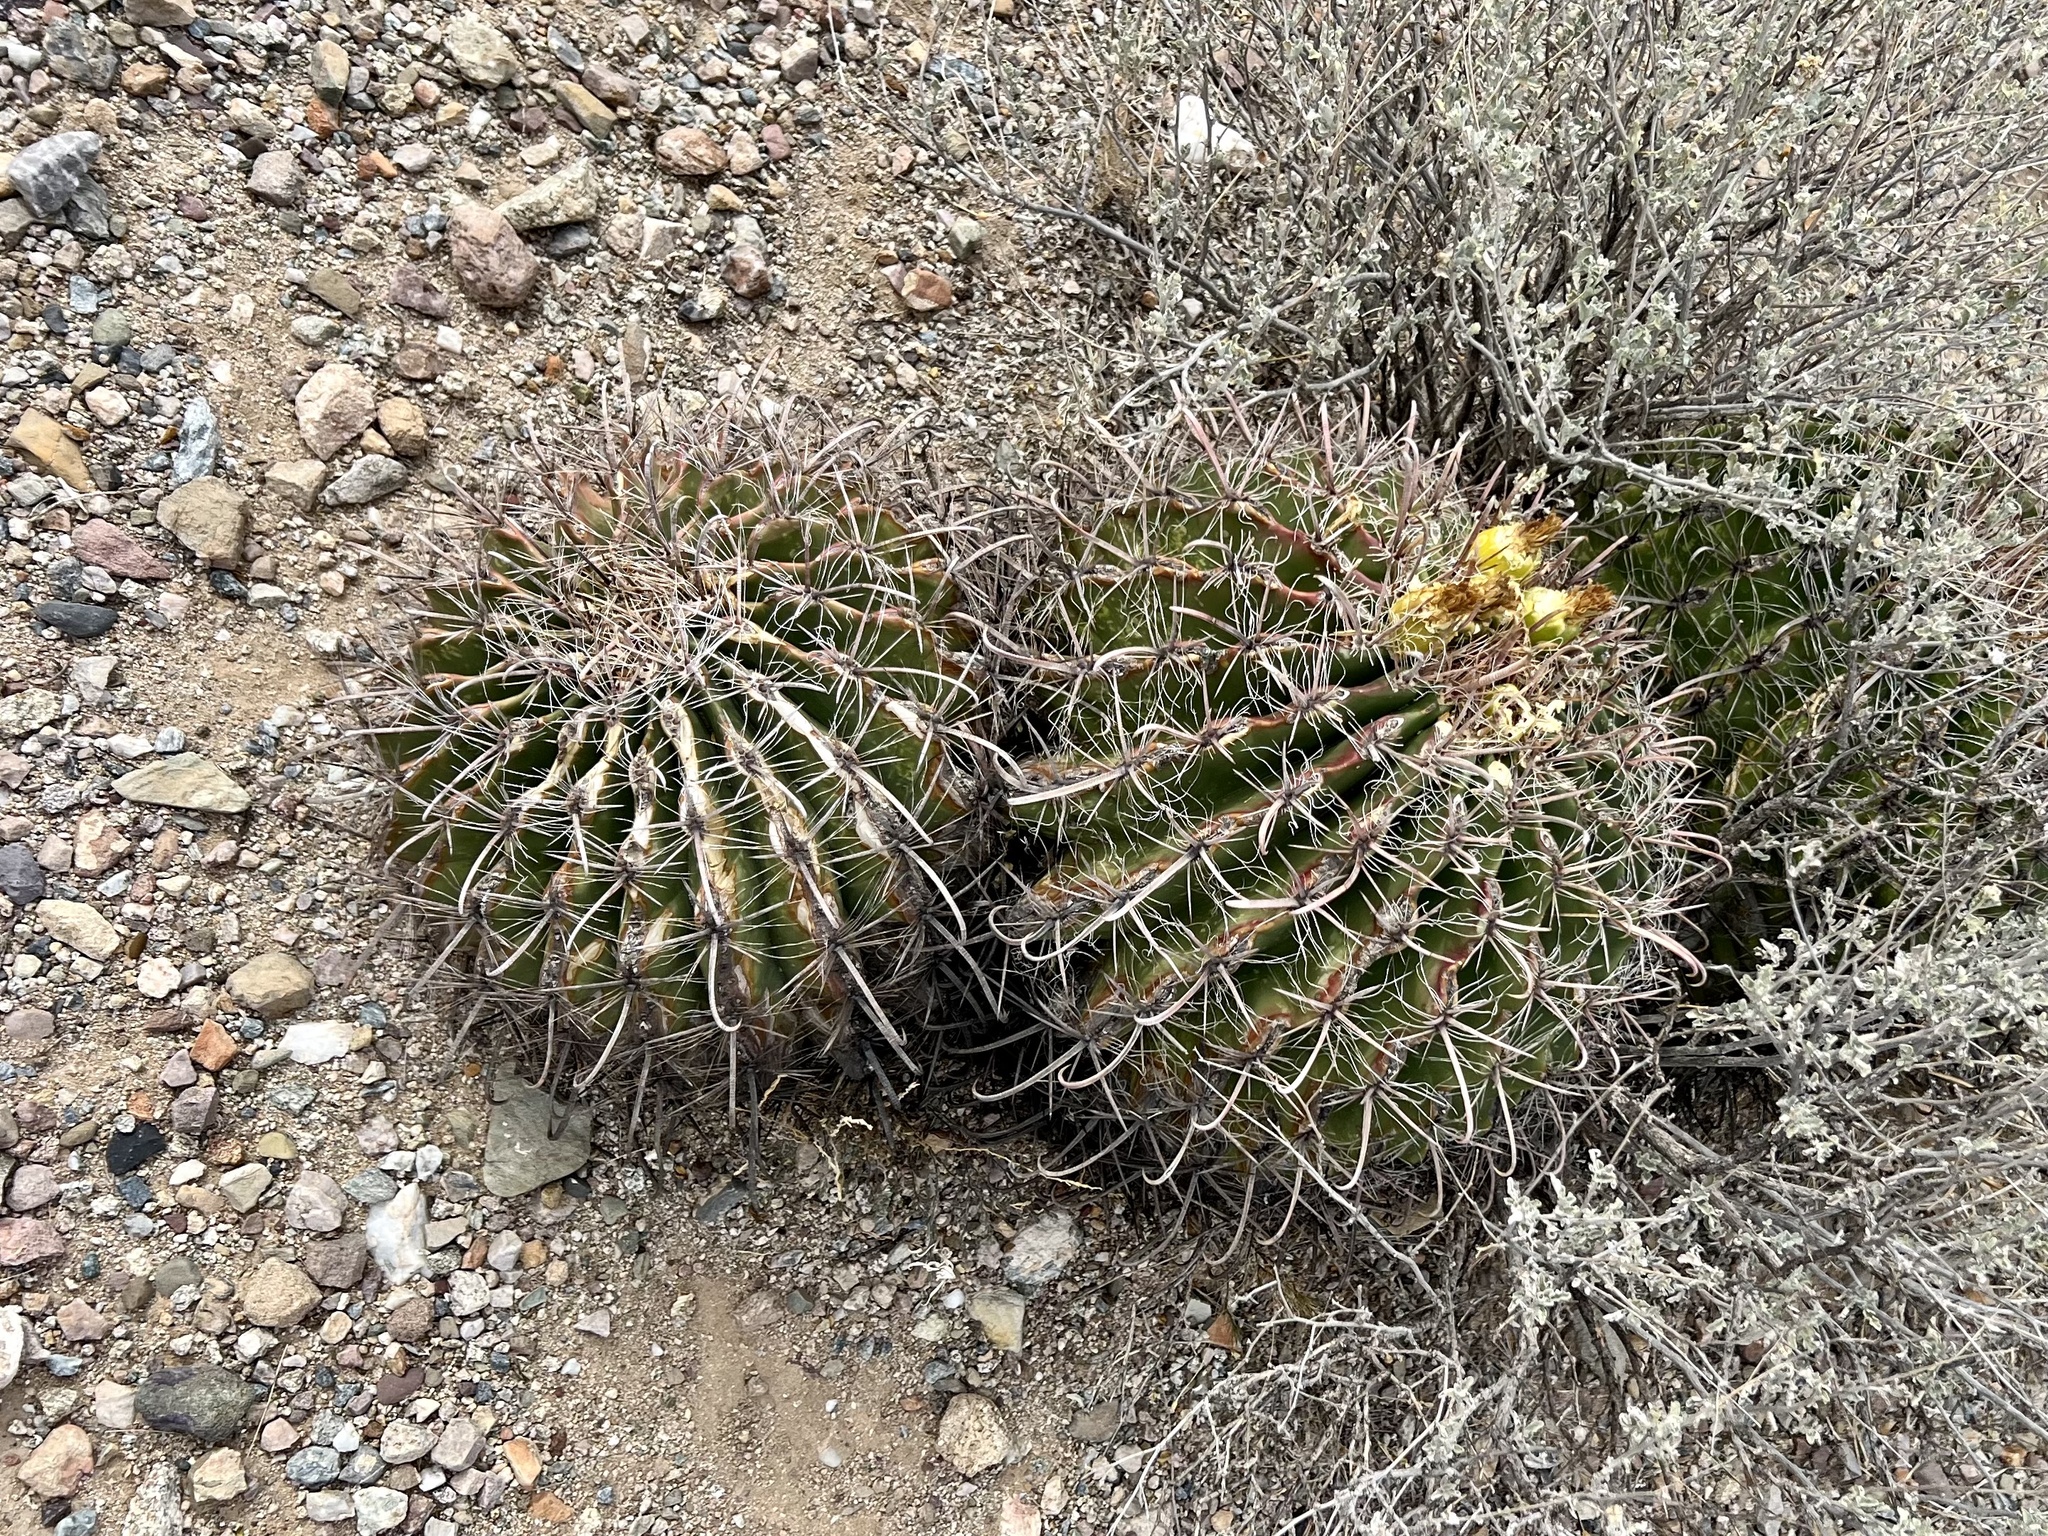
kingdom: Plantae
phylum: Tracheophyta
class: Magnoliopsida
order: Caryophyllales
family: Cactaceae
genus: Ferocactus
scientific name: Ferocactus wislizeni
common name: Candy barrel cactus
